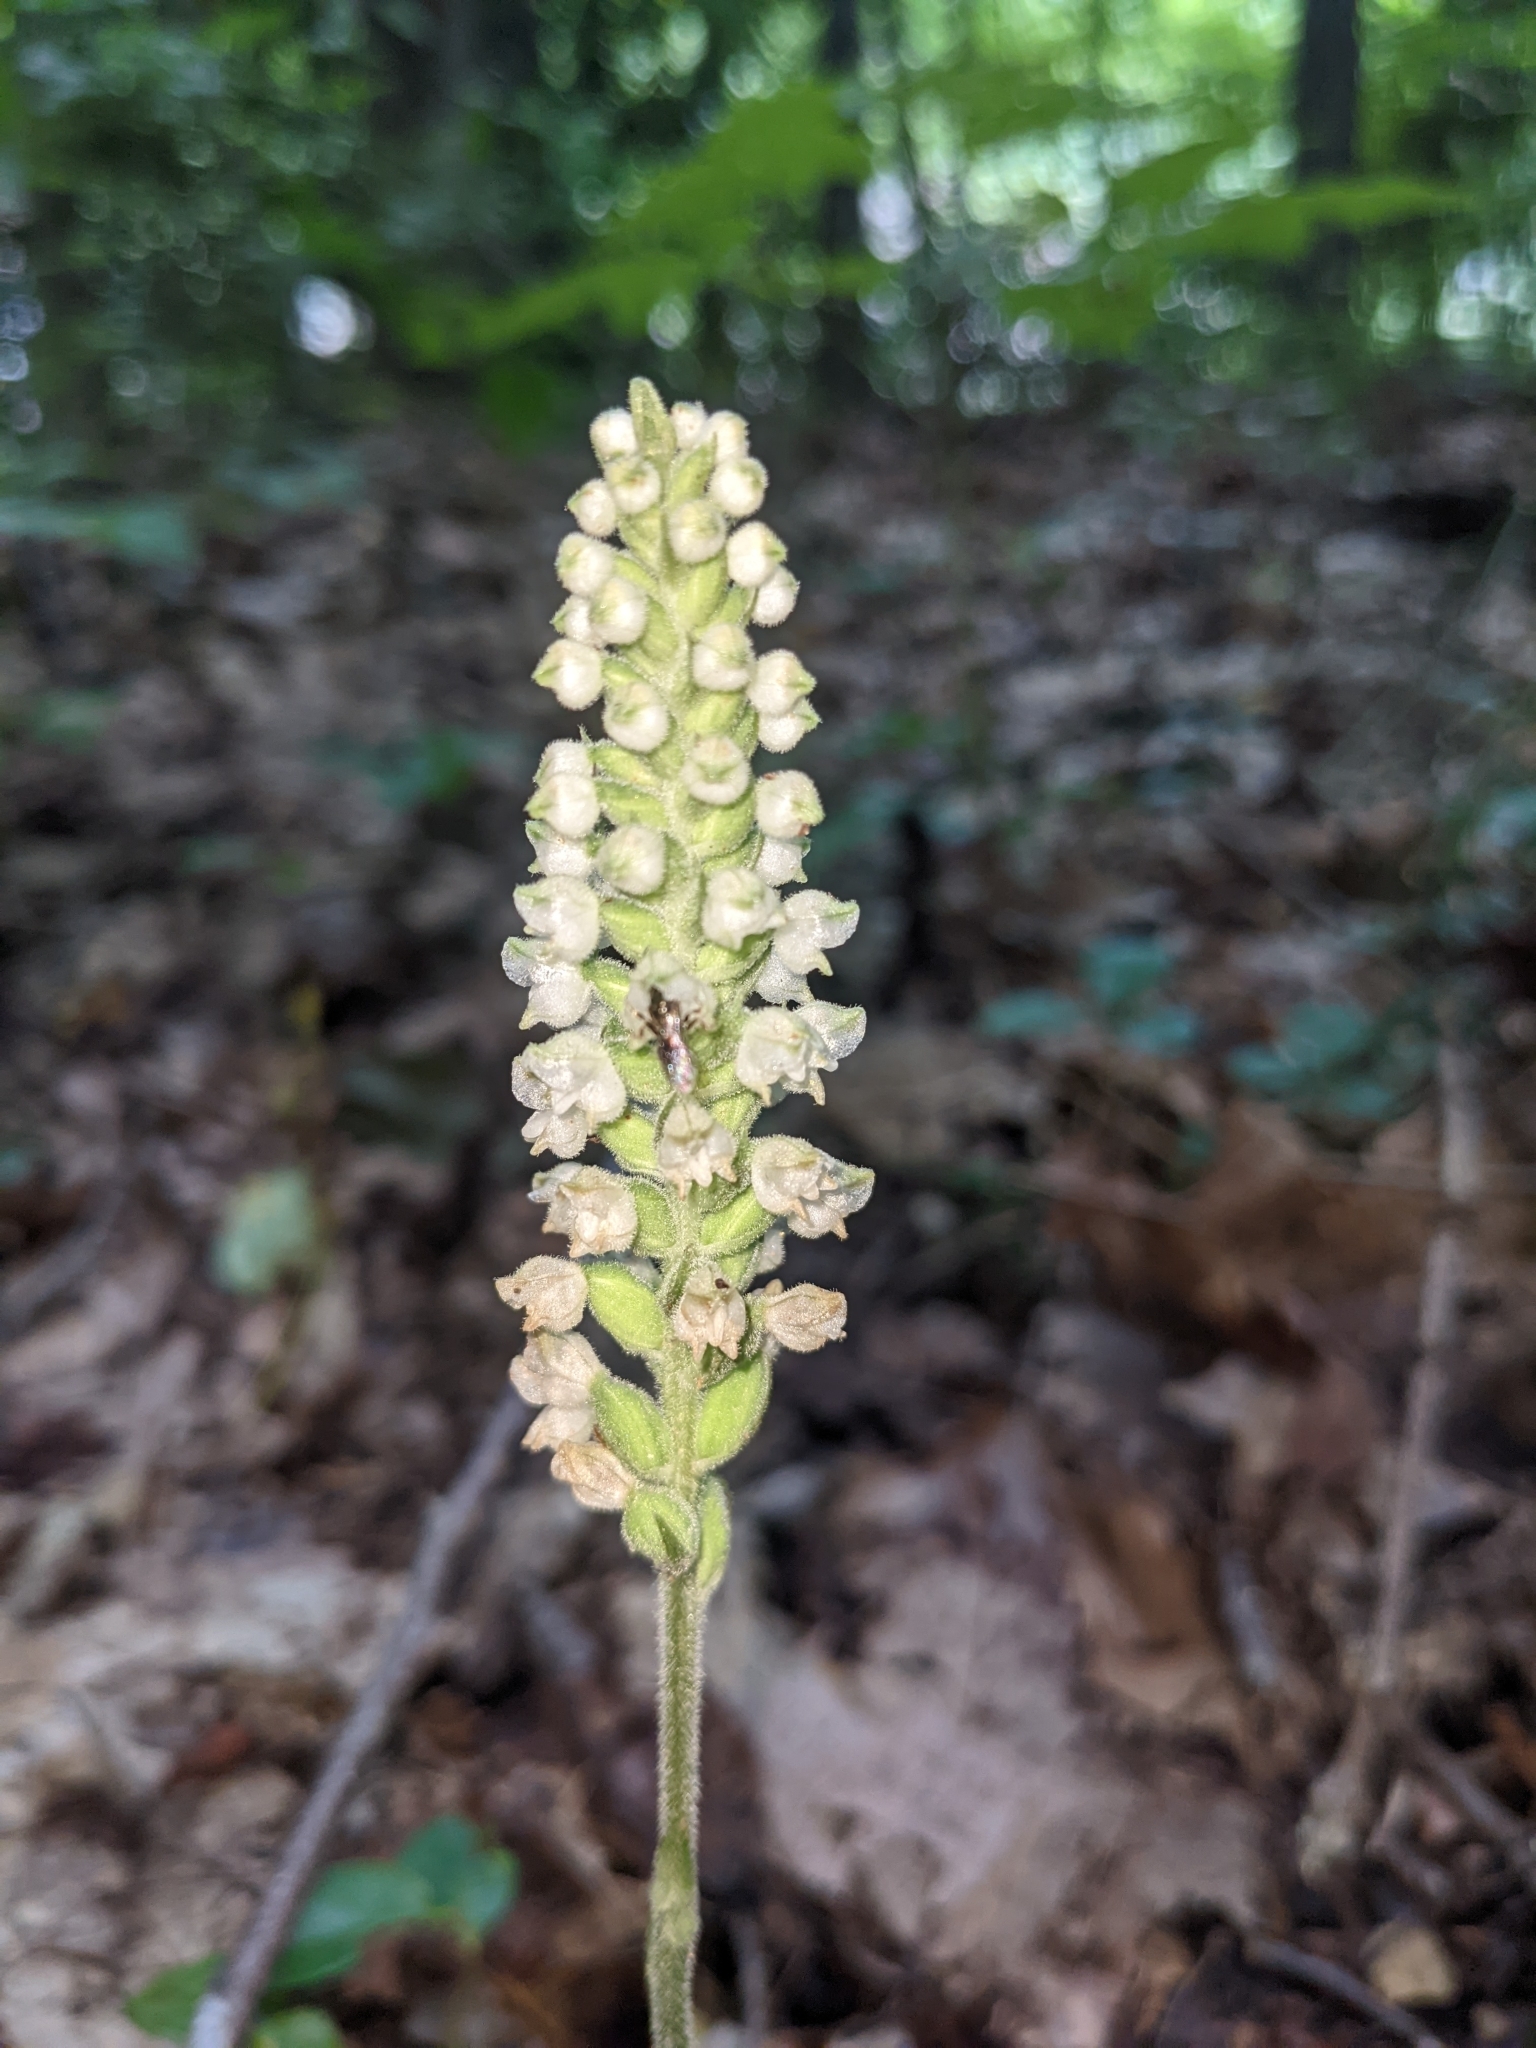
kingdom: Plantae
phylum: Tracheophyta
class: Liliopsida
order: Asparagales
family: Orchidaceae
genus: Goodyera
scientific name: Goodyera pubescens
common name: Downy rattlesnake-plantain
